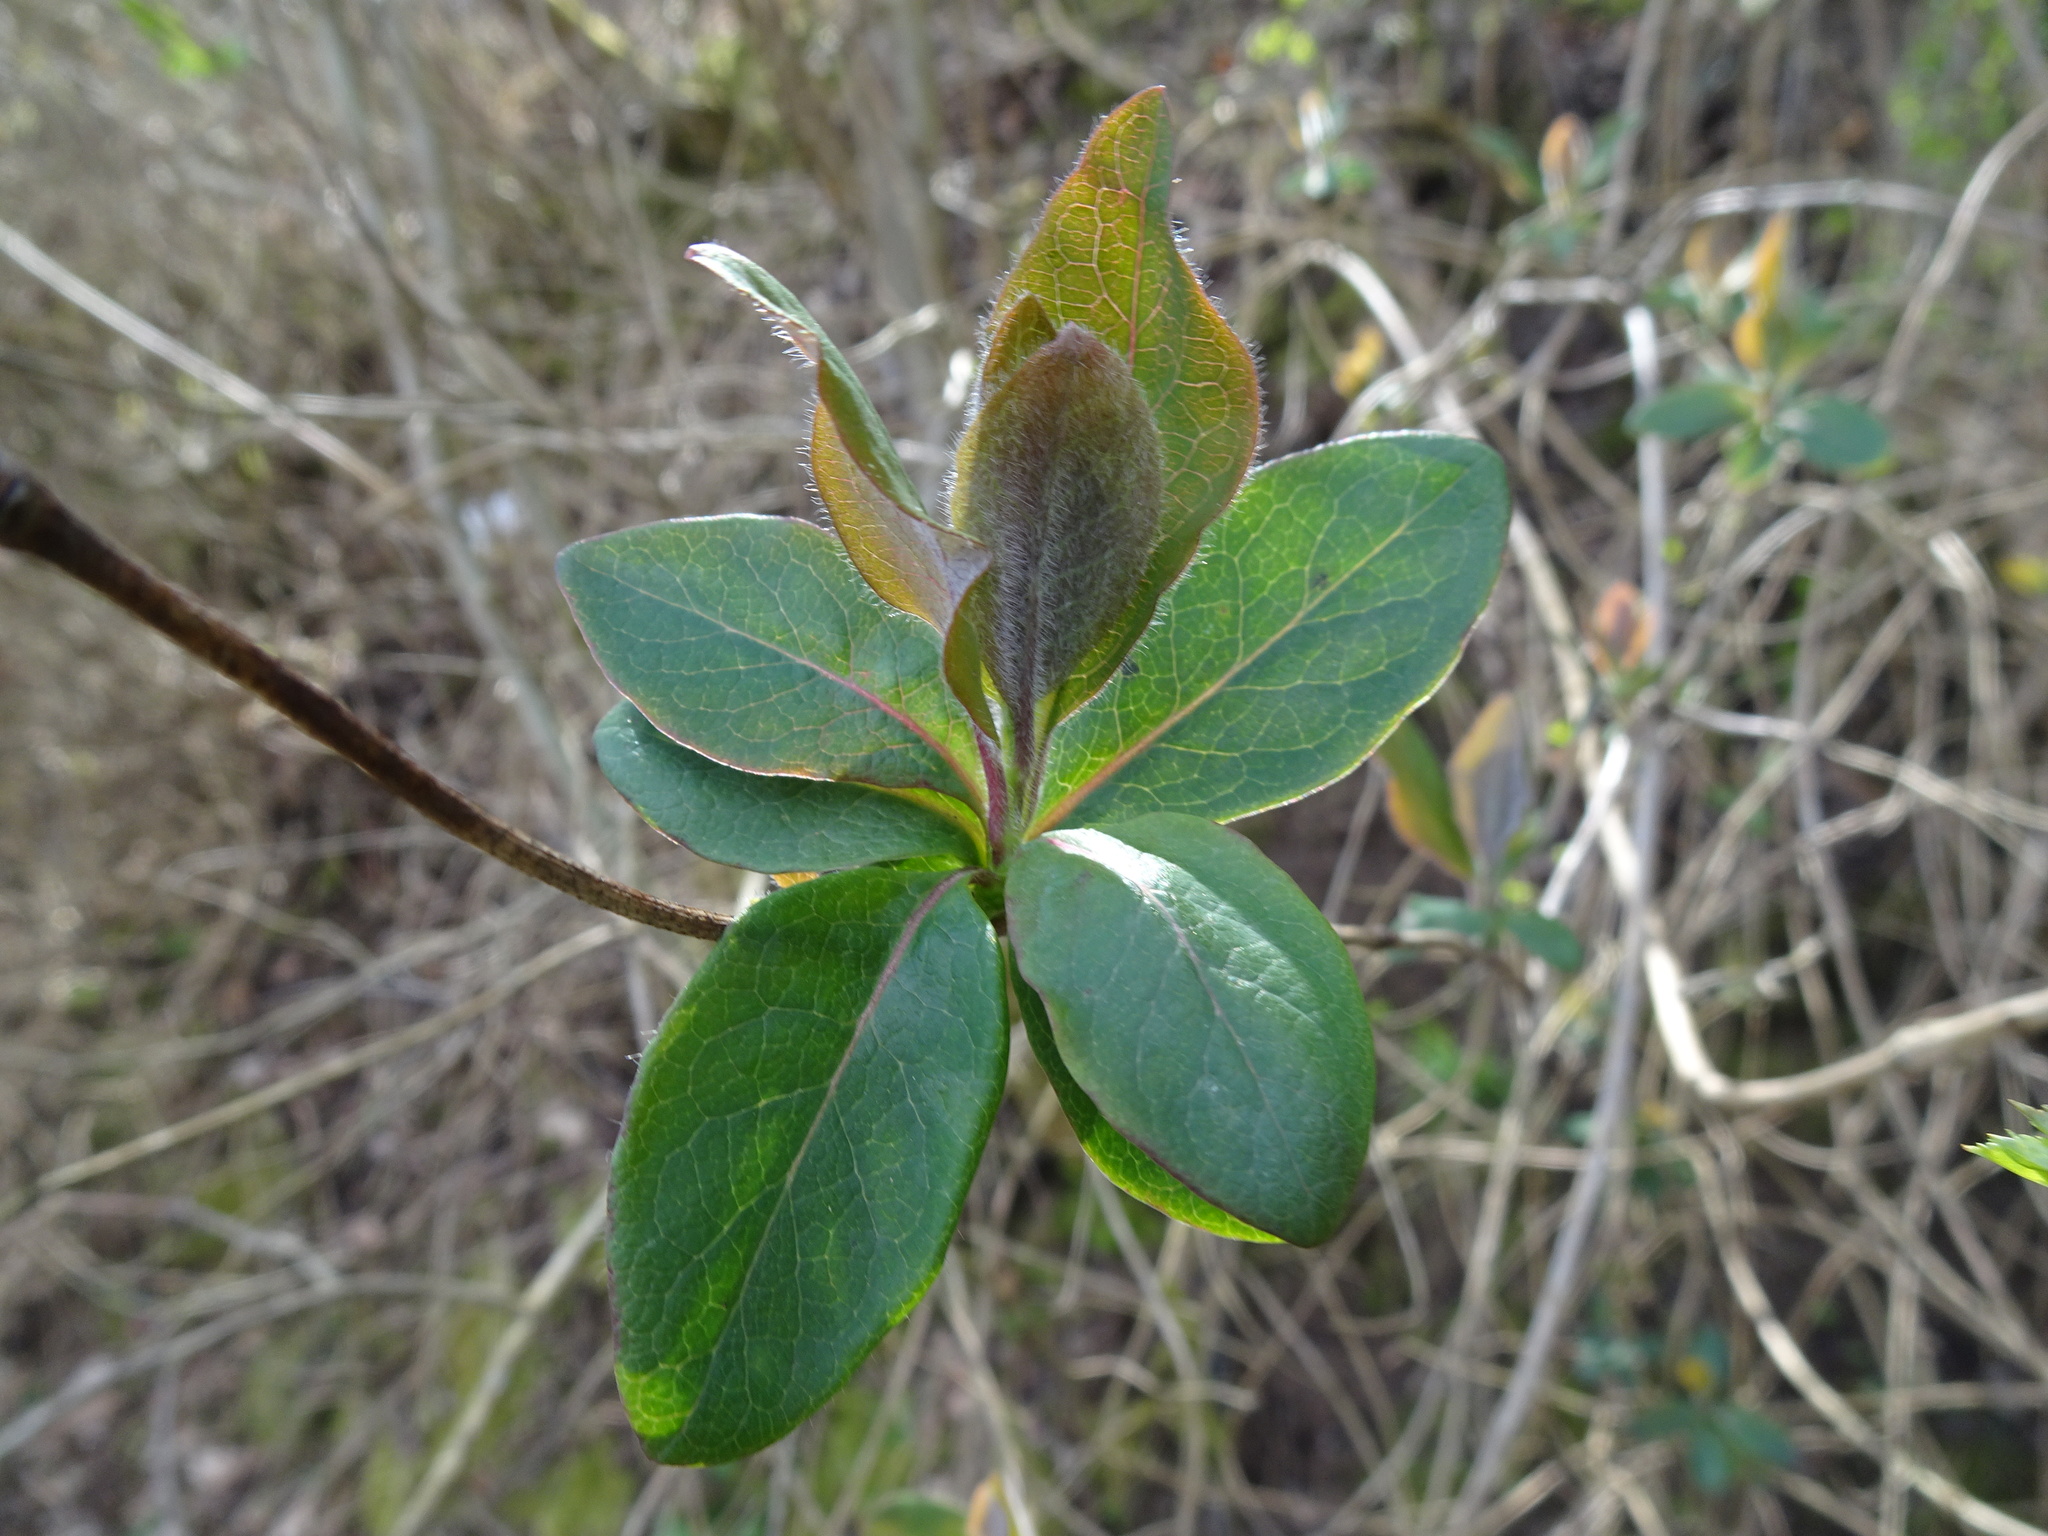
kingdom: Plantae
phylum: Tracheophyta
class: Magnoliopsida
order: Dipsacales
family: Caprifoliaceae
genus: Lonicera
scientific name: Lonicera periclymenum
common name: European honeysuckle
